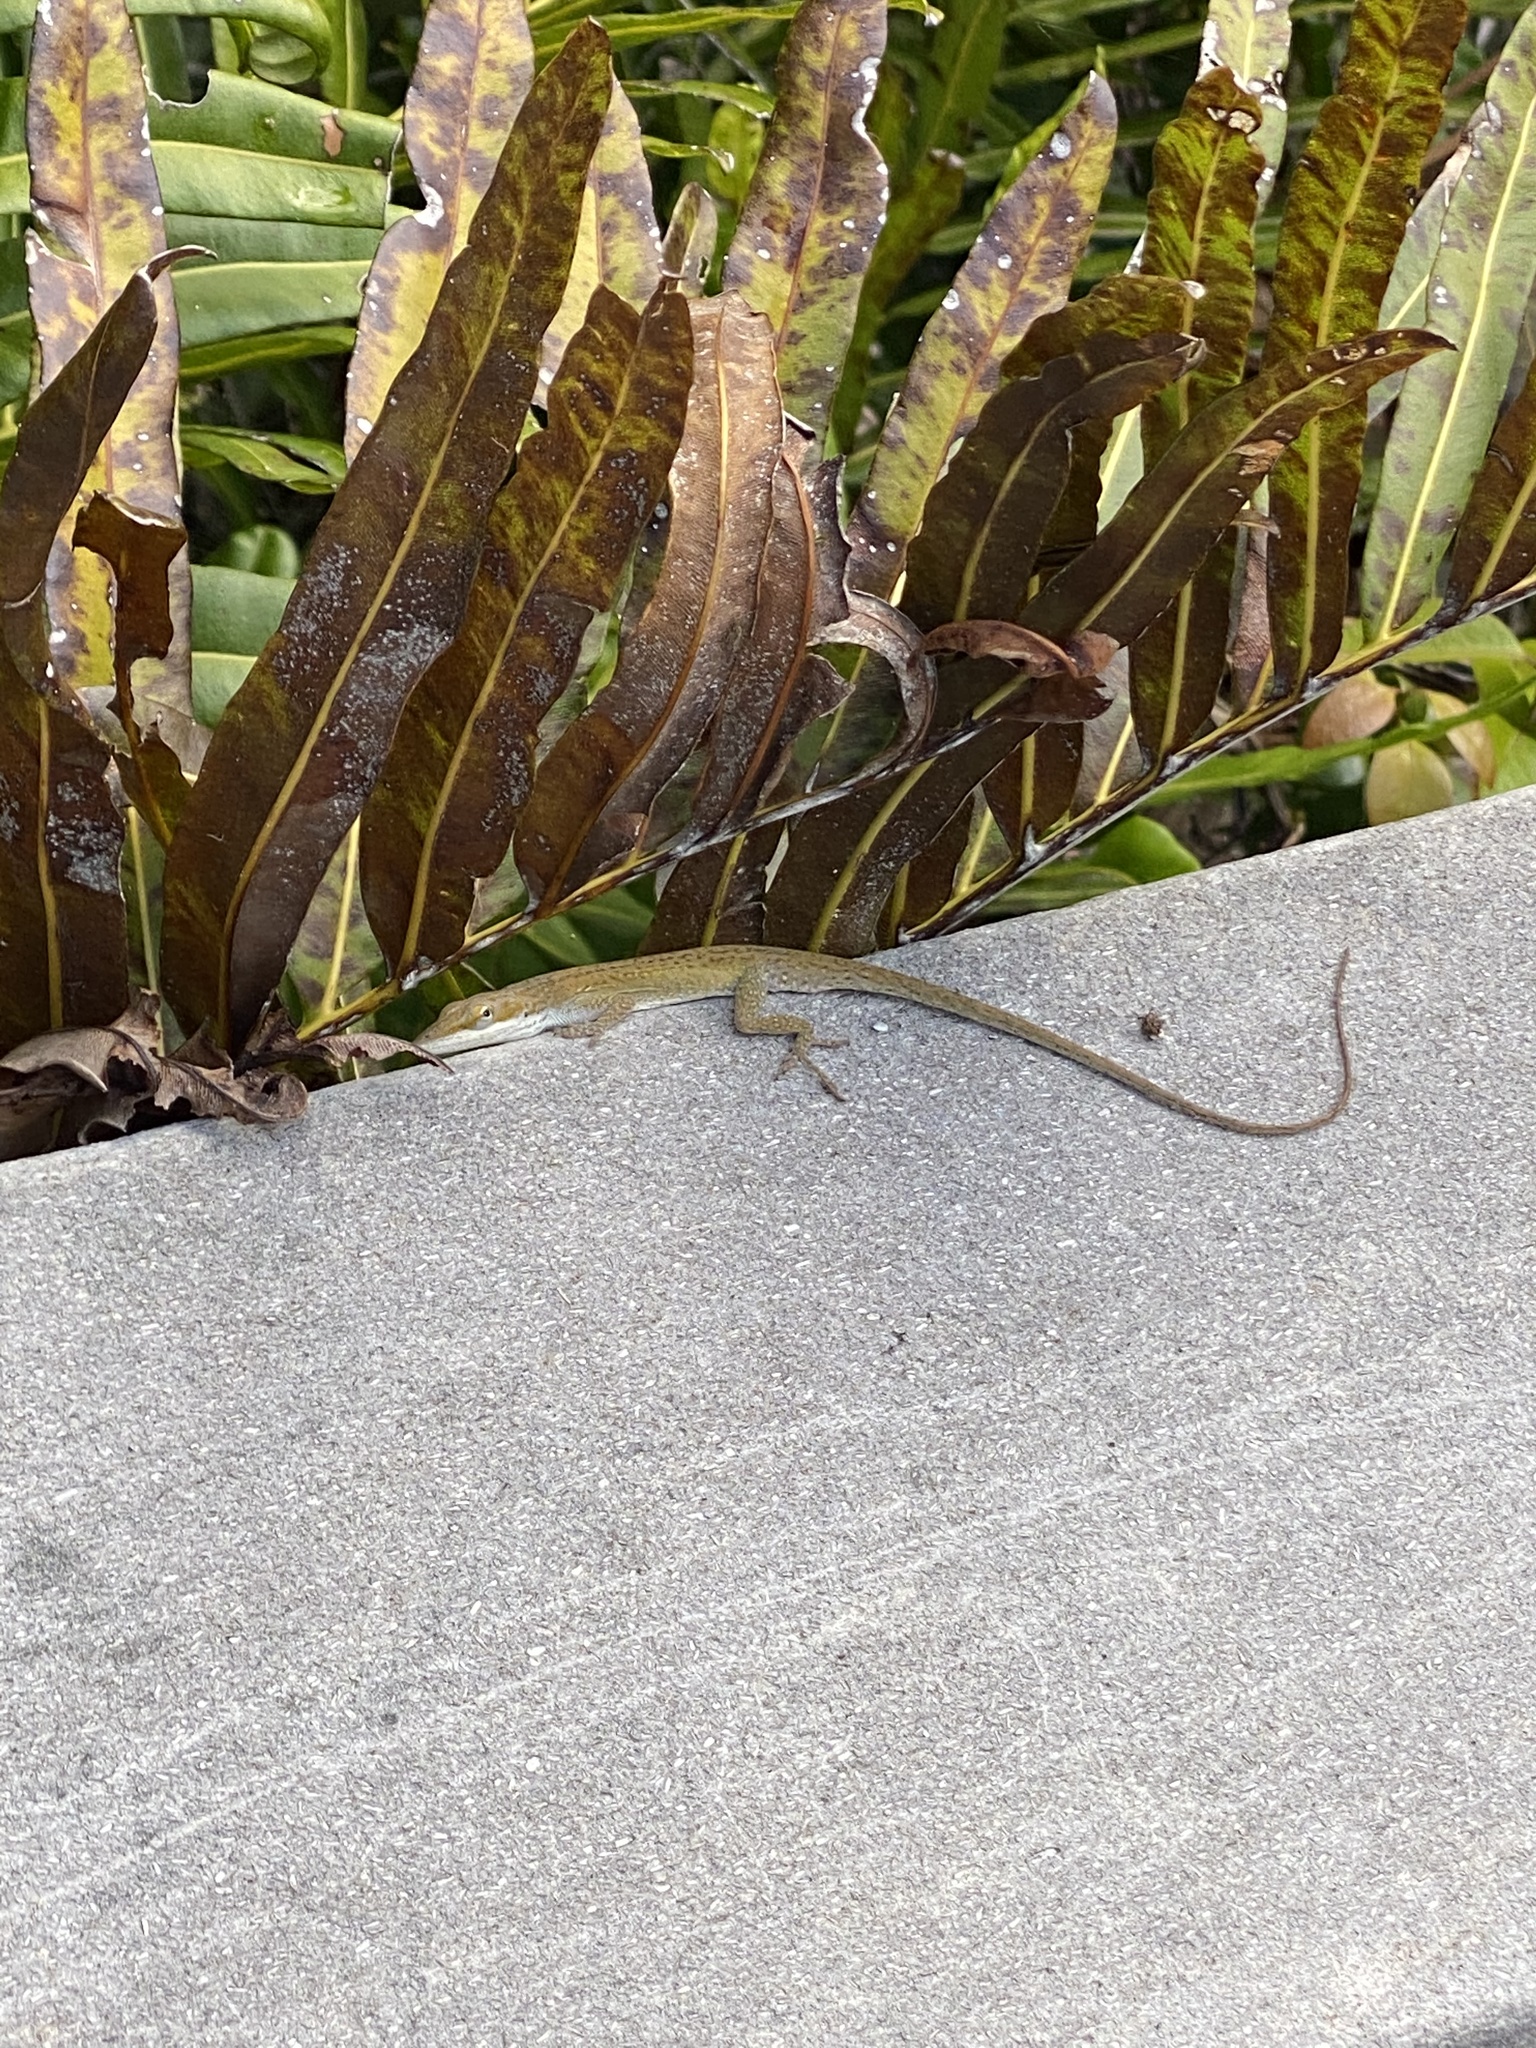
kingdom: Animalia
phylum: Chordata
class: Squamata
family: Dactyloidae
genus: Anolis
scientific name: Anolis carolinensis
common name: Green anole
